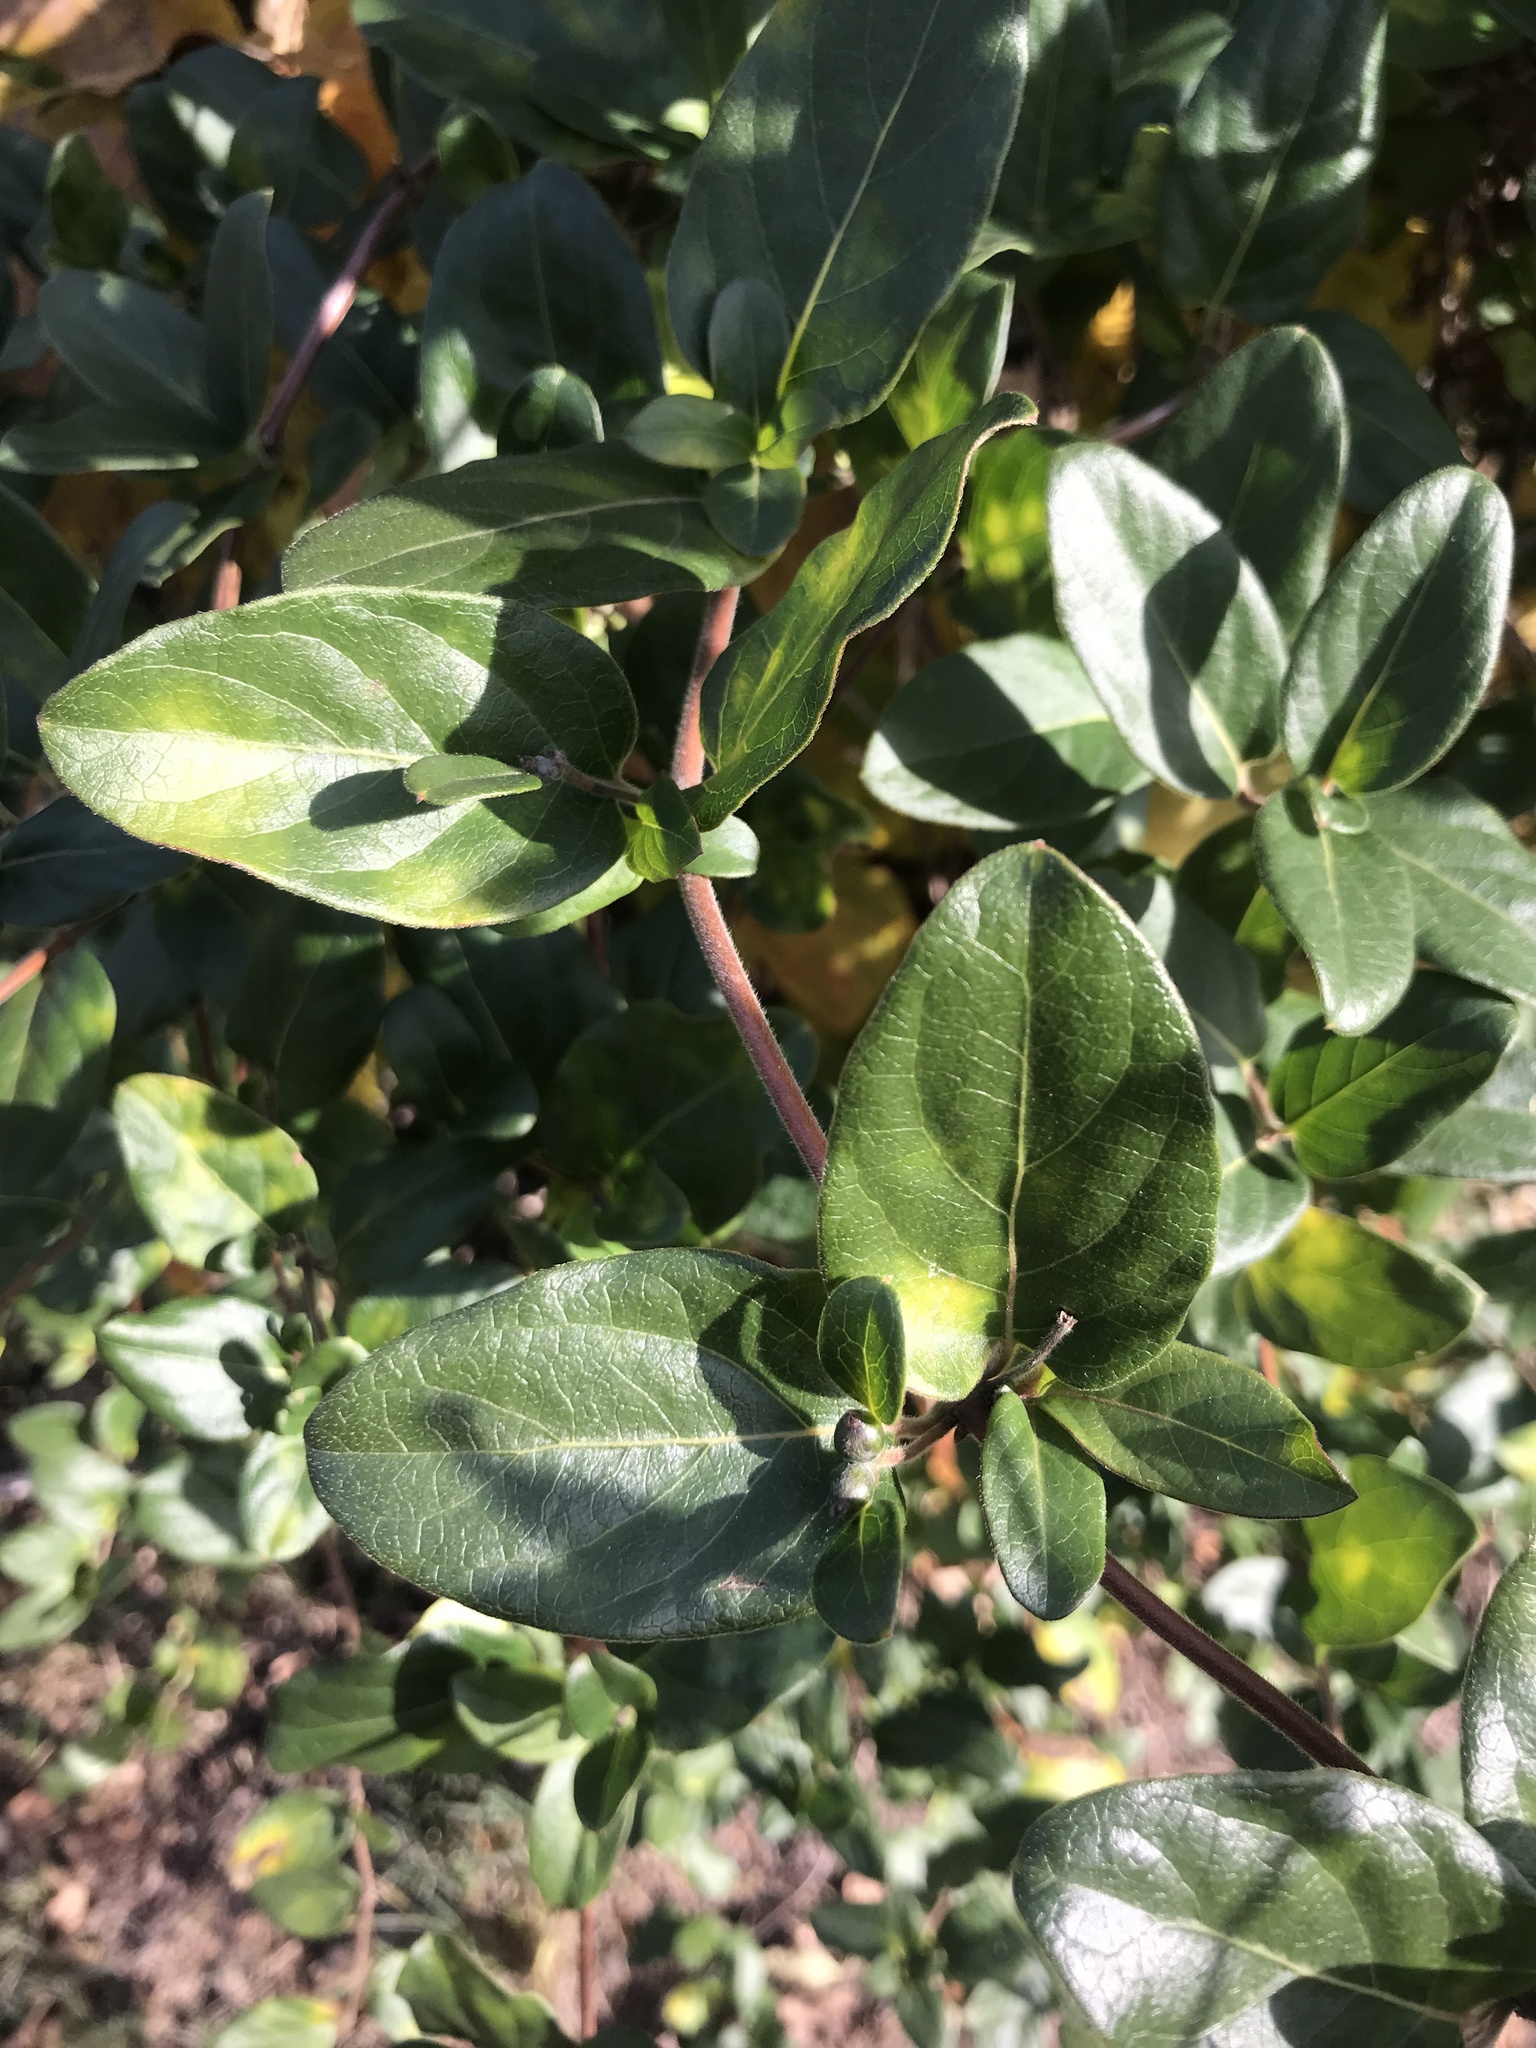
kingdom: Plantae
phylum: Tracheophyta
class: Magnoliopsida
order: Dipsacales
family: Caprifoliaceae
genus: Lonicera
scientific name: Lonicera japonica
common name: Japanese honeysuckle
